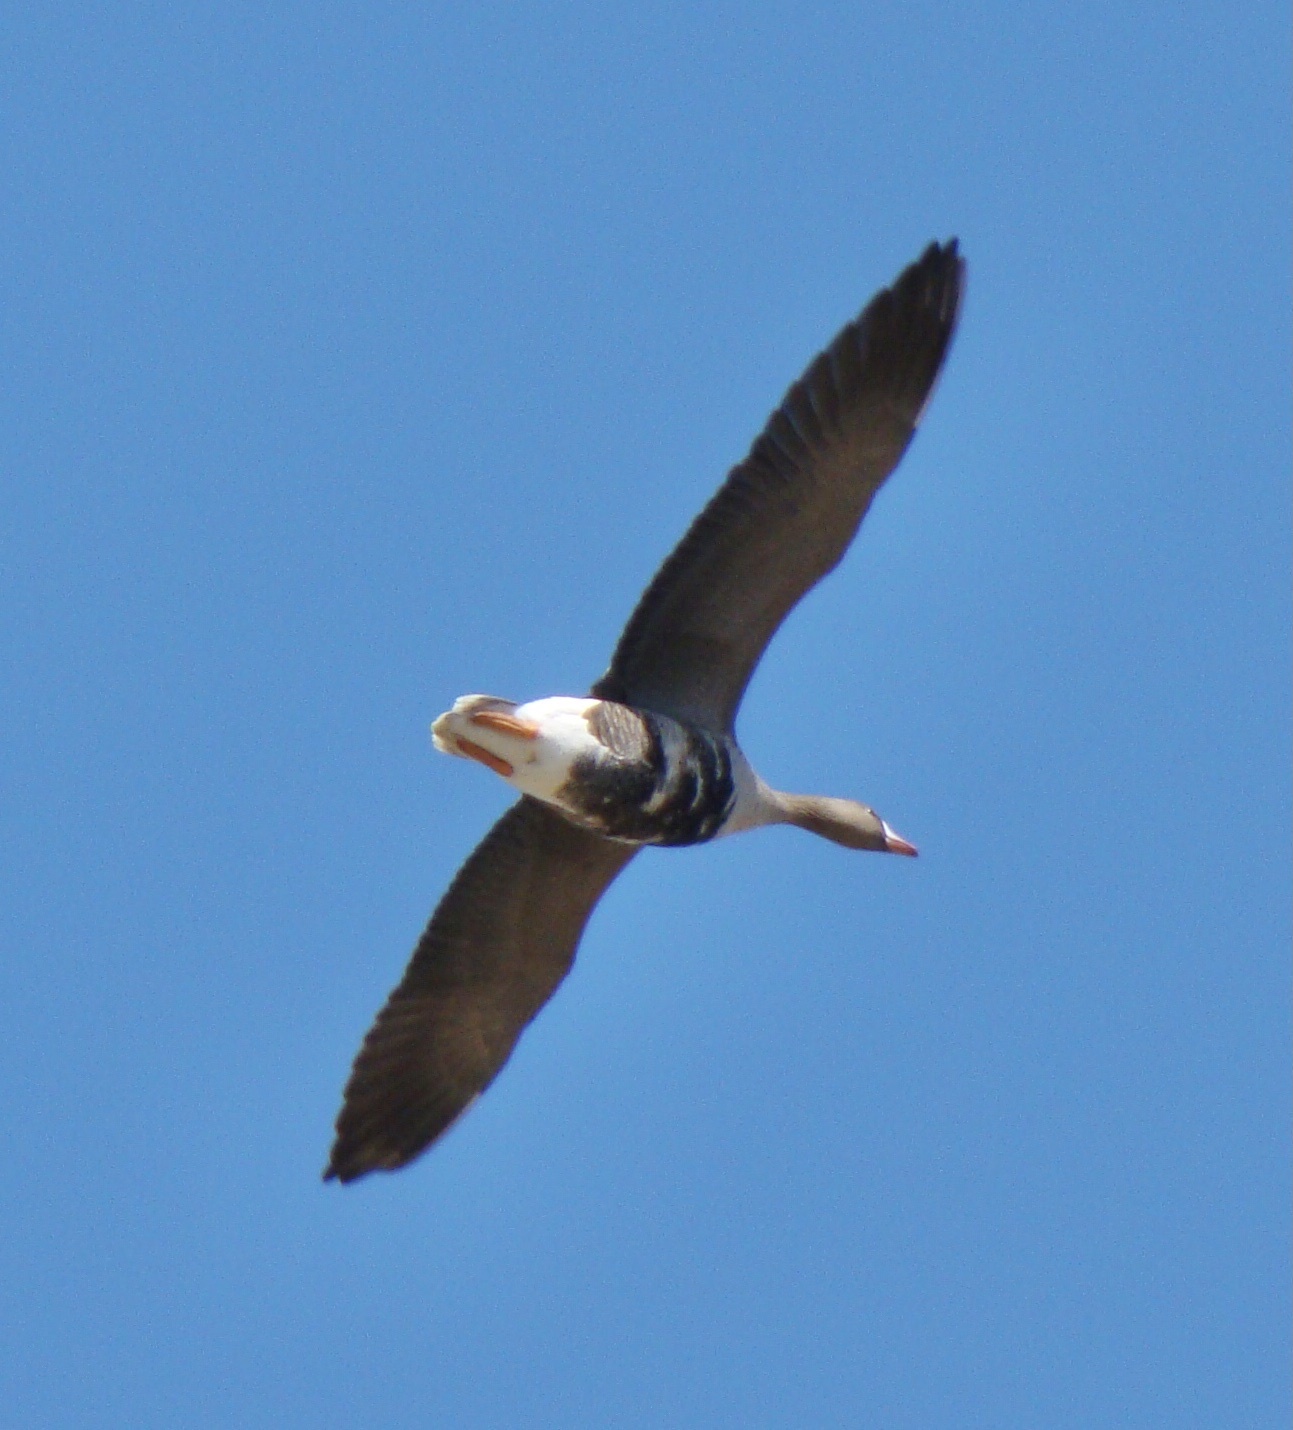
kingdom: Animalia
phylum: Chordata
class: Aves
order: Anseriformes
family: Anatidae
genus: Anser
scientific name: Anser albifrons
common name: Greater white-fronted goose
